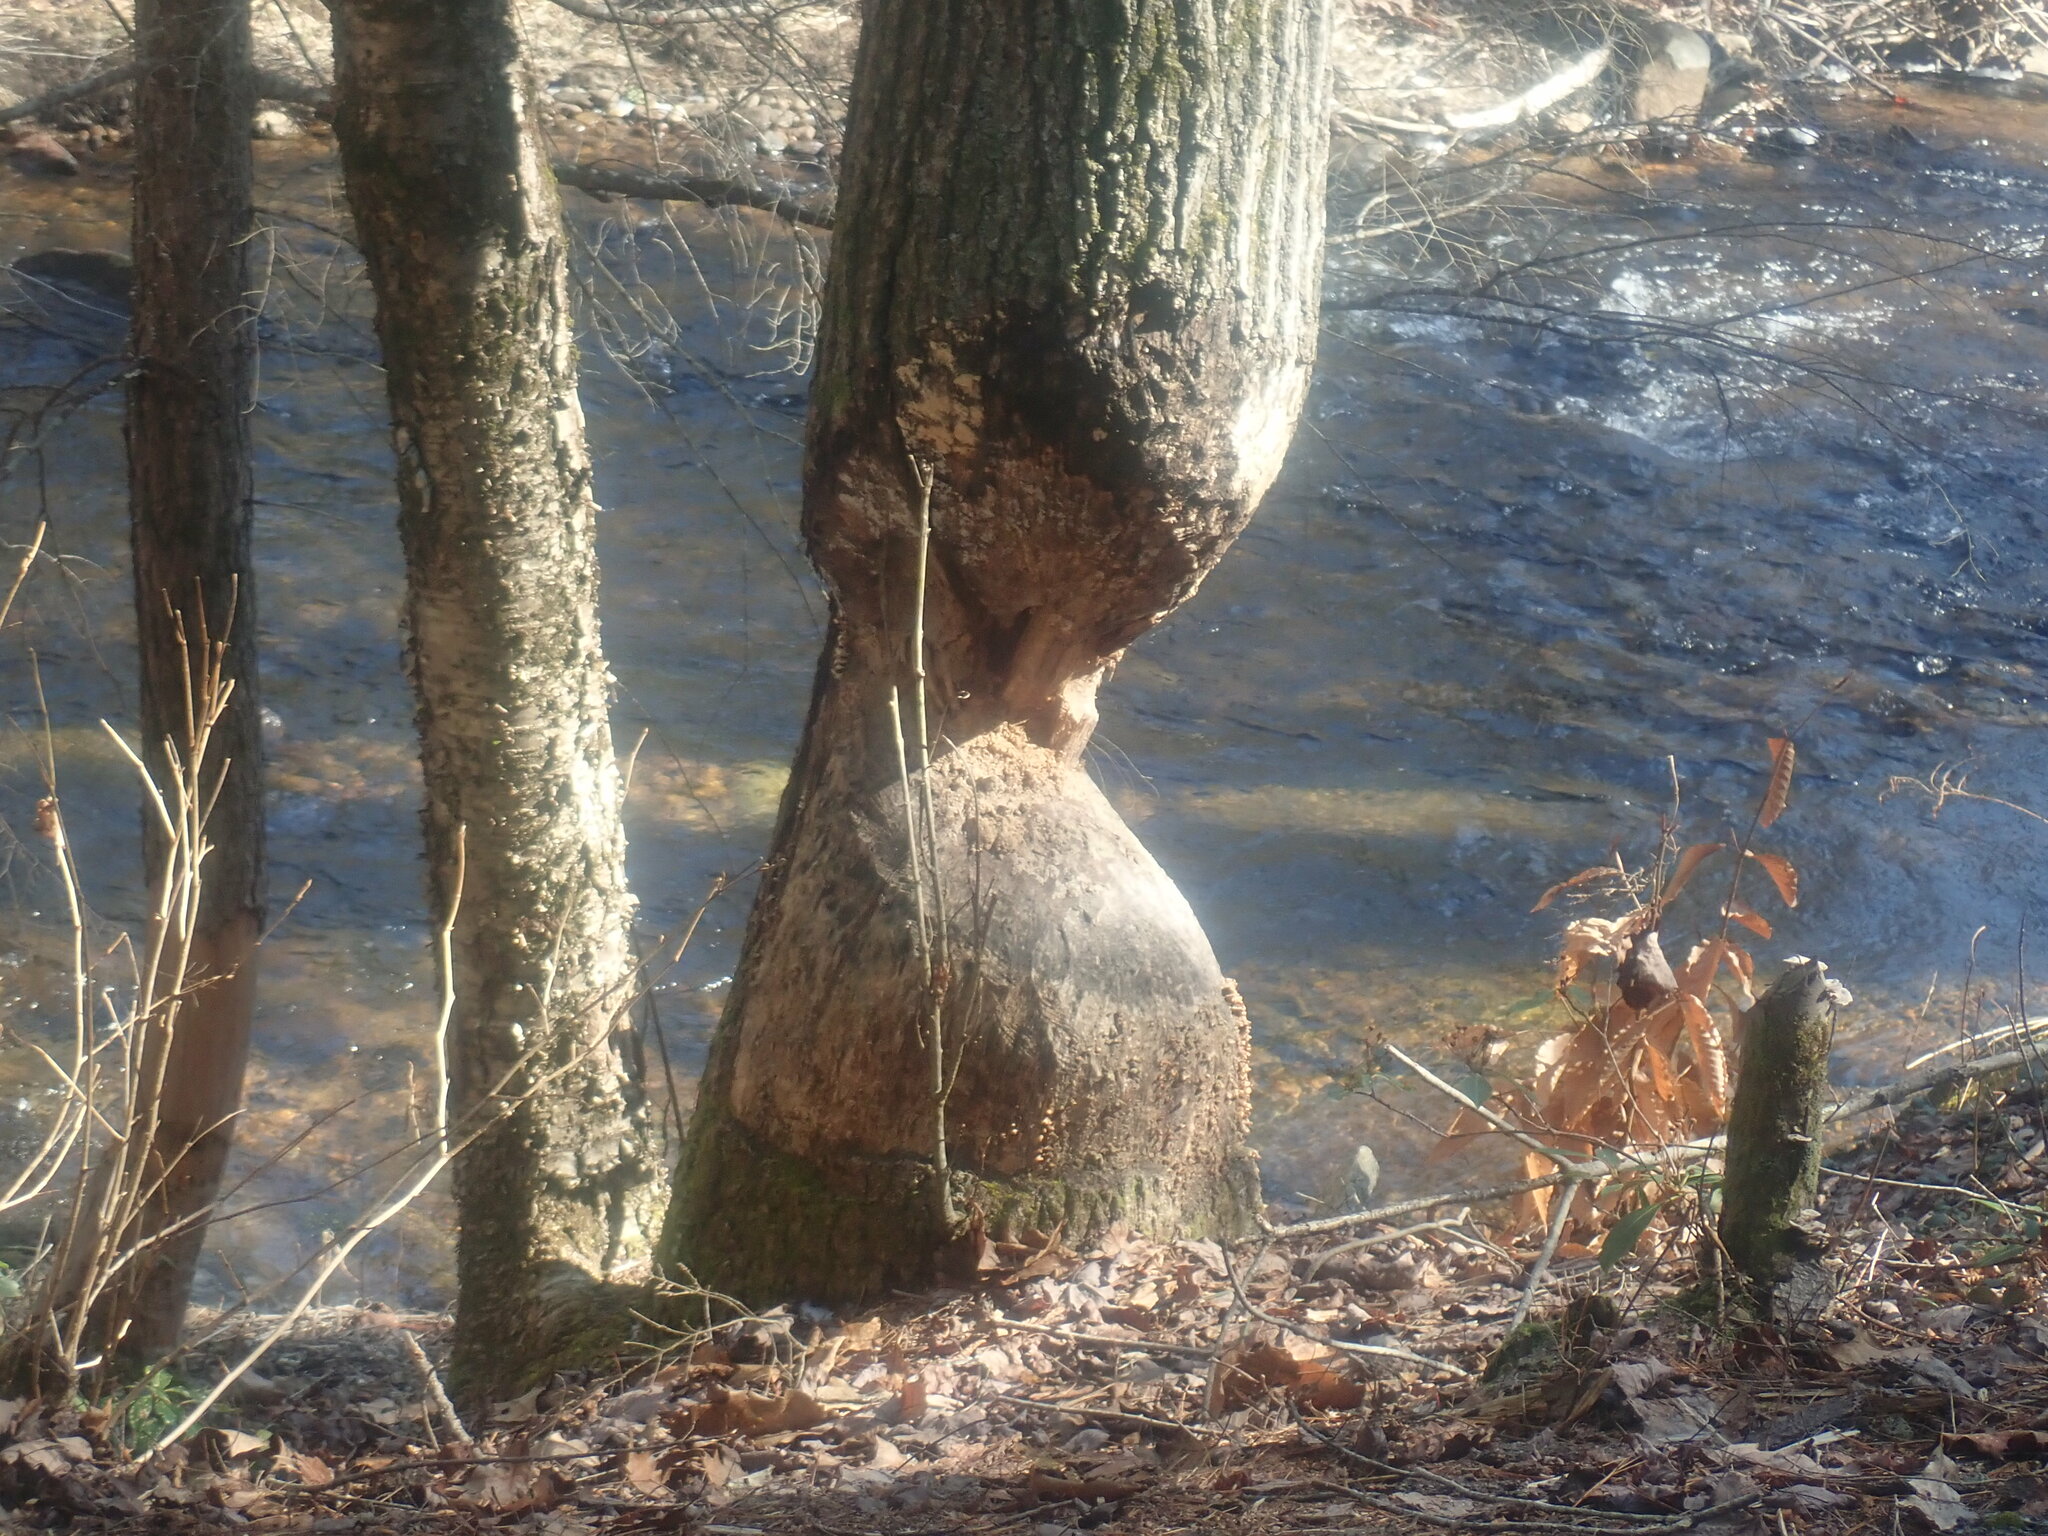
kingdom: Animalia
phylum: Chordata
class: Mammalia
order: Rodentia
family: Castoridae
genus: Castor
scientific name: Castor canadensis
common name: American beaver
